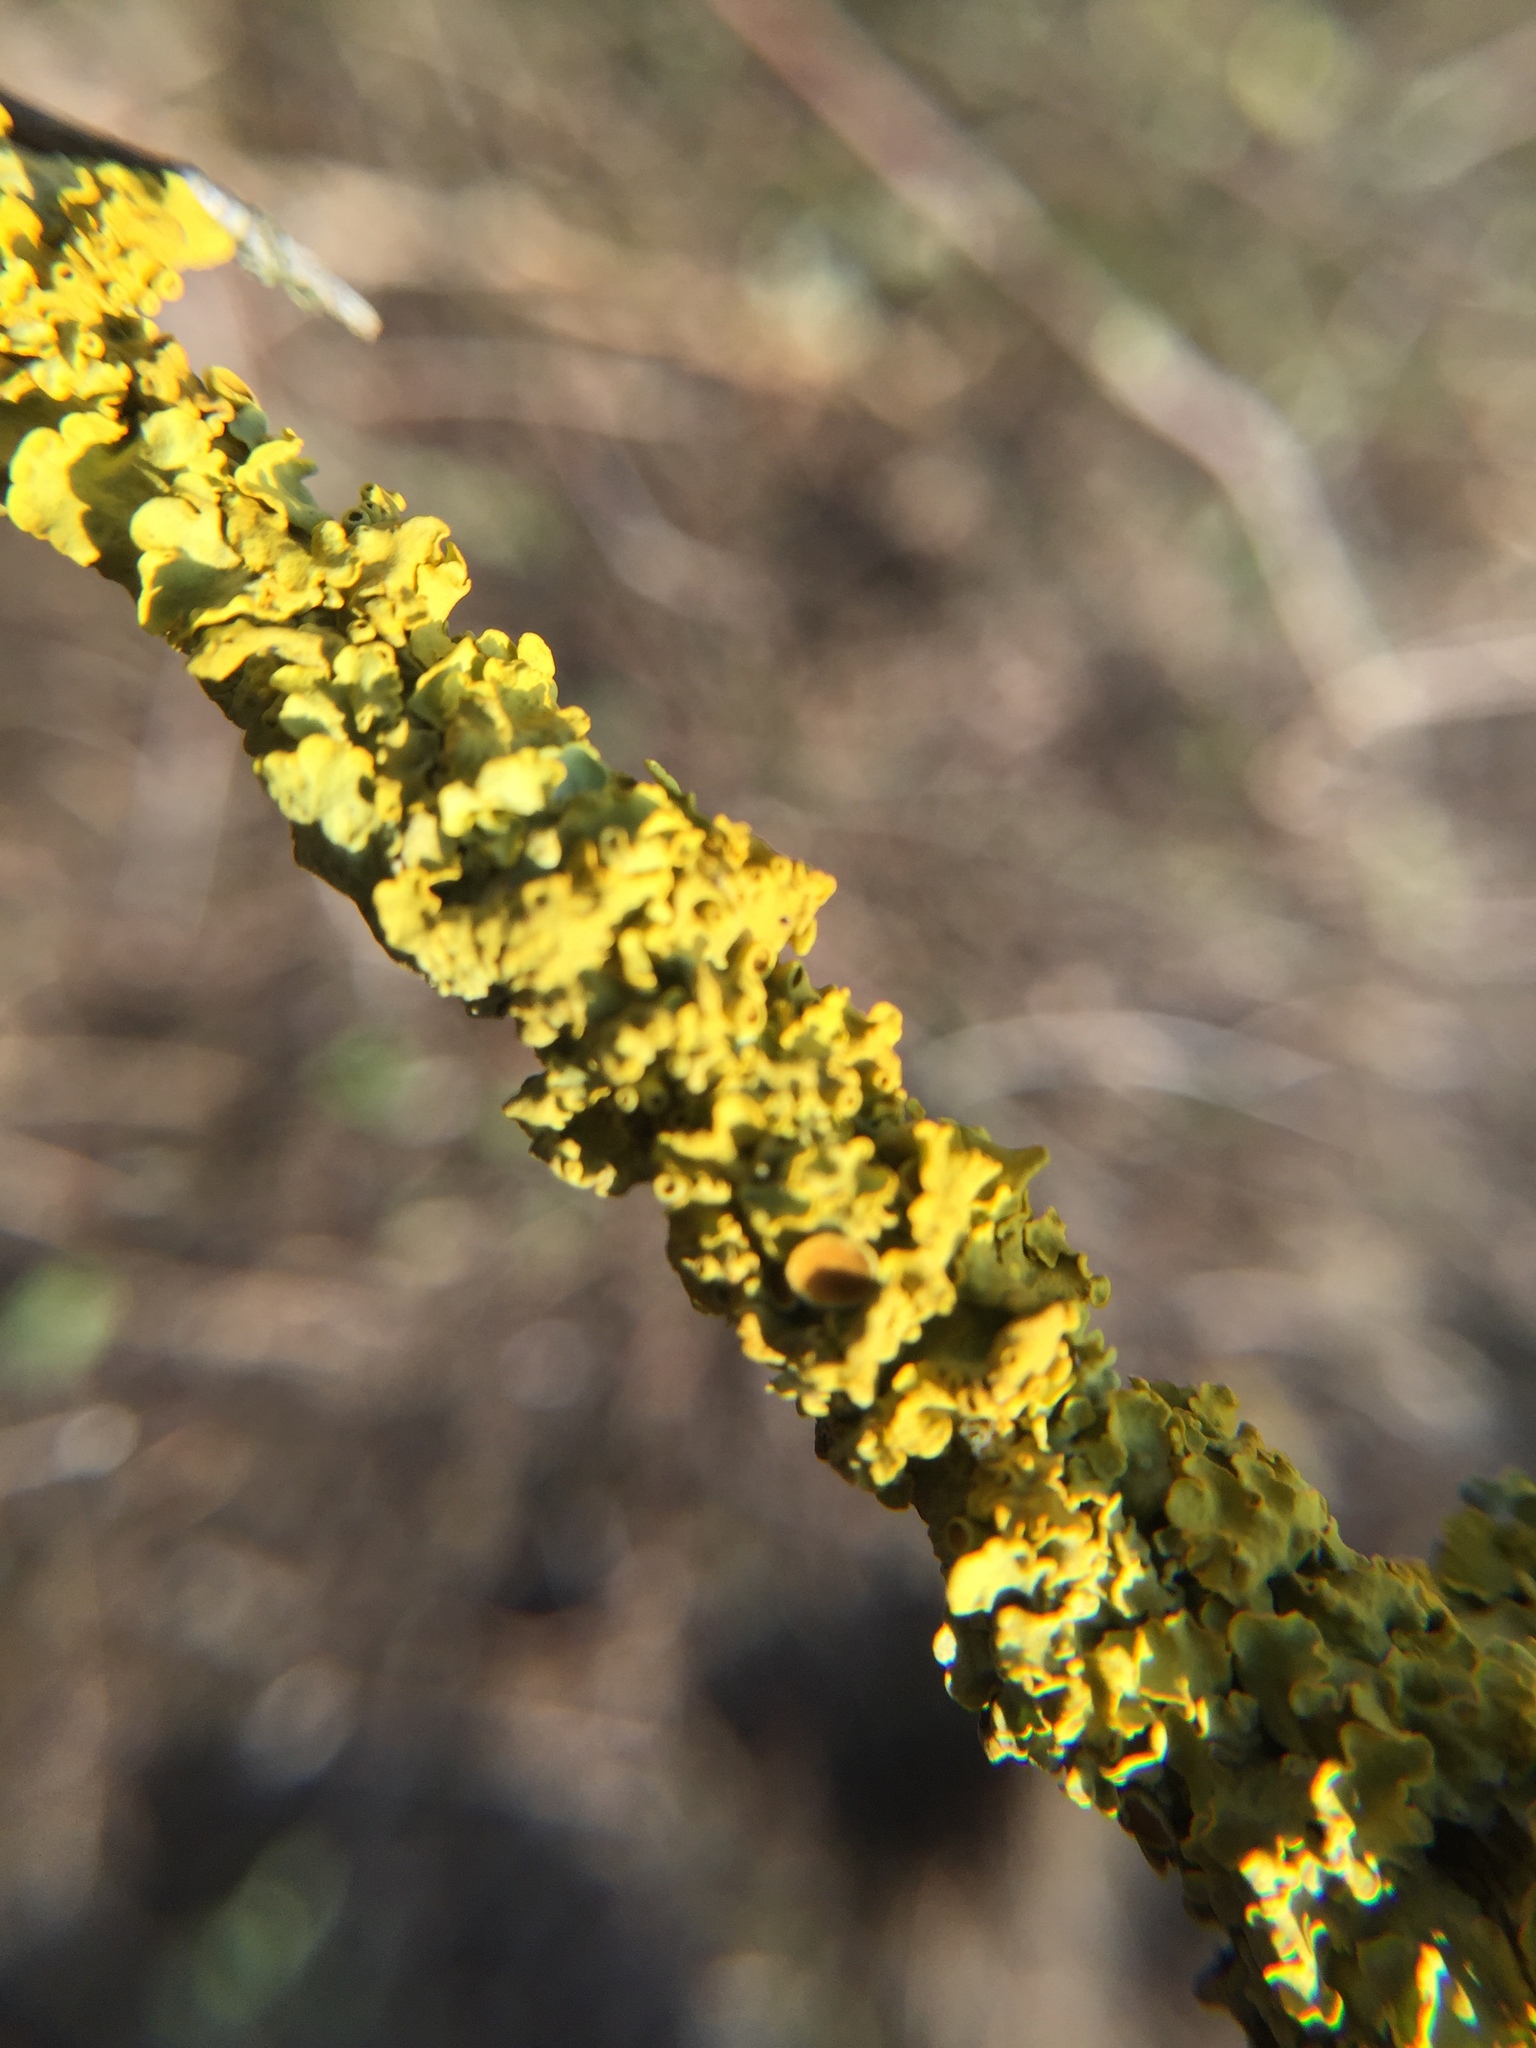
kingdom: Fungi
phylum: Ascomycota
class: Lecanoromycetes
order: Teloschistales
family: Teloschistaceae
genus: Xanthoria
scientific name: Xanthoria parietina
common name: Common orange lichen
